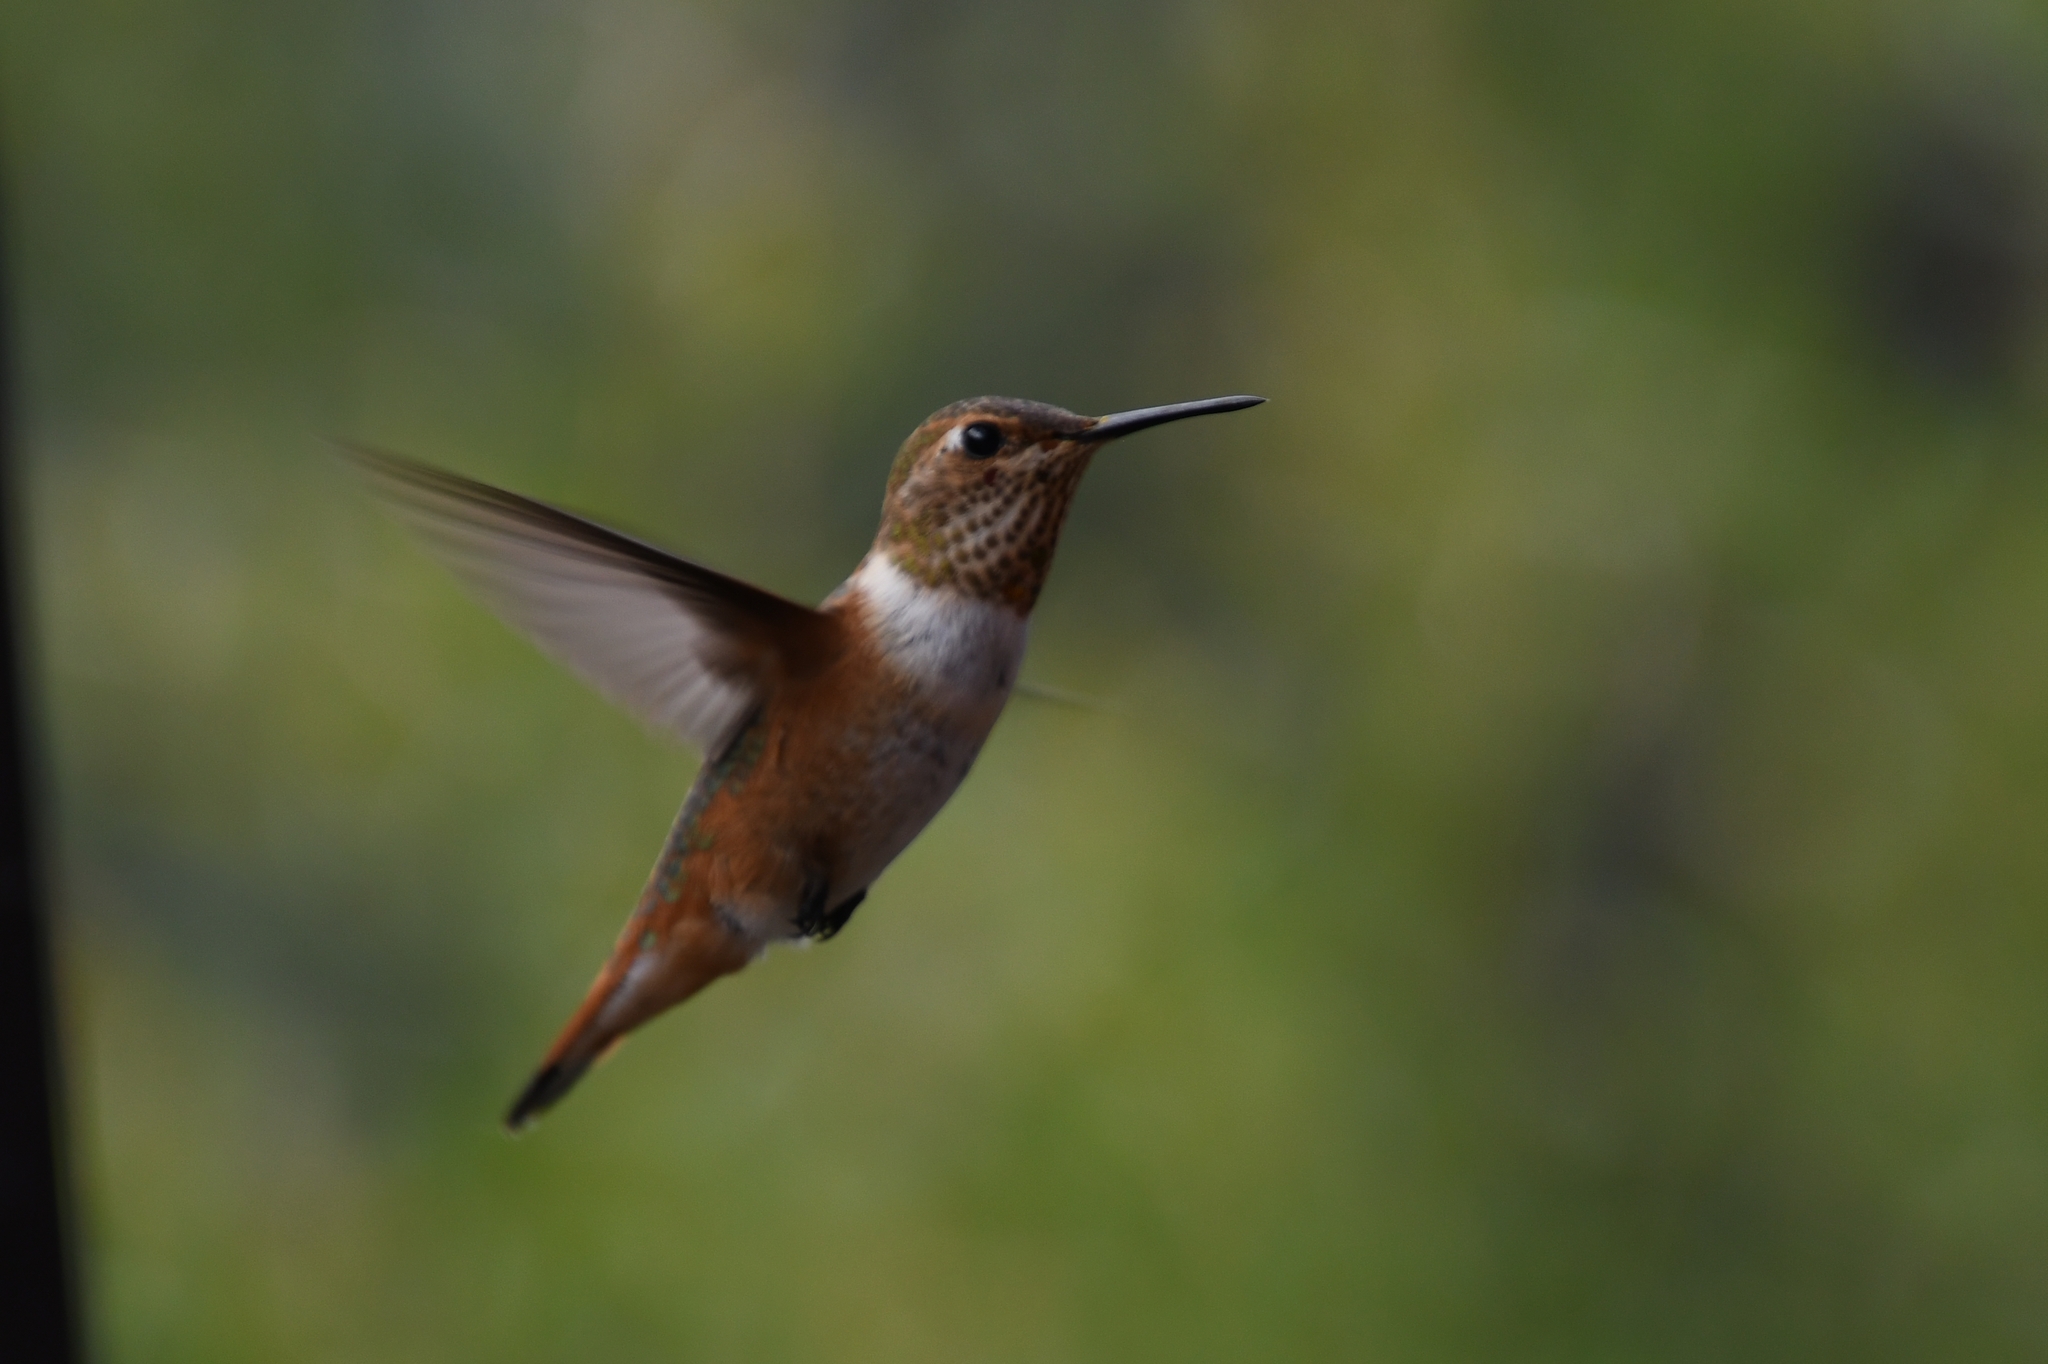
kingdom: Animalia
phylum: Chordata
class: Aves
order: Apodiformes
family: Trochilidae
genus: Selasphorus
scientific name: Selasphorus rufus
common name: Rufous hummingbird
